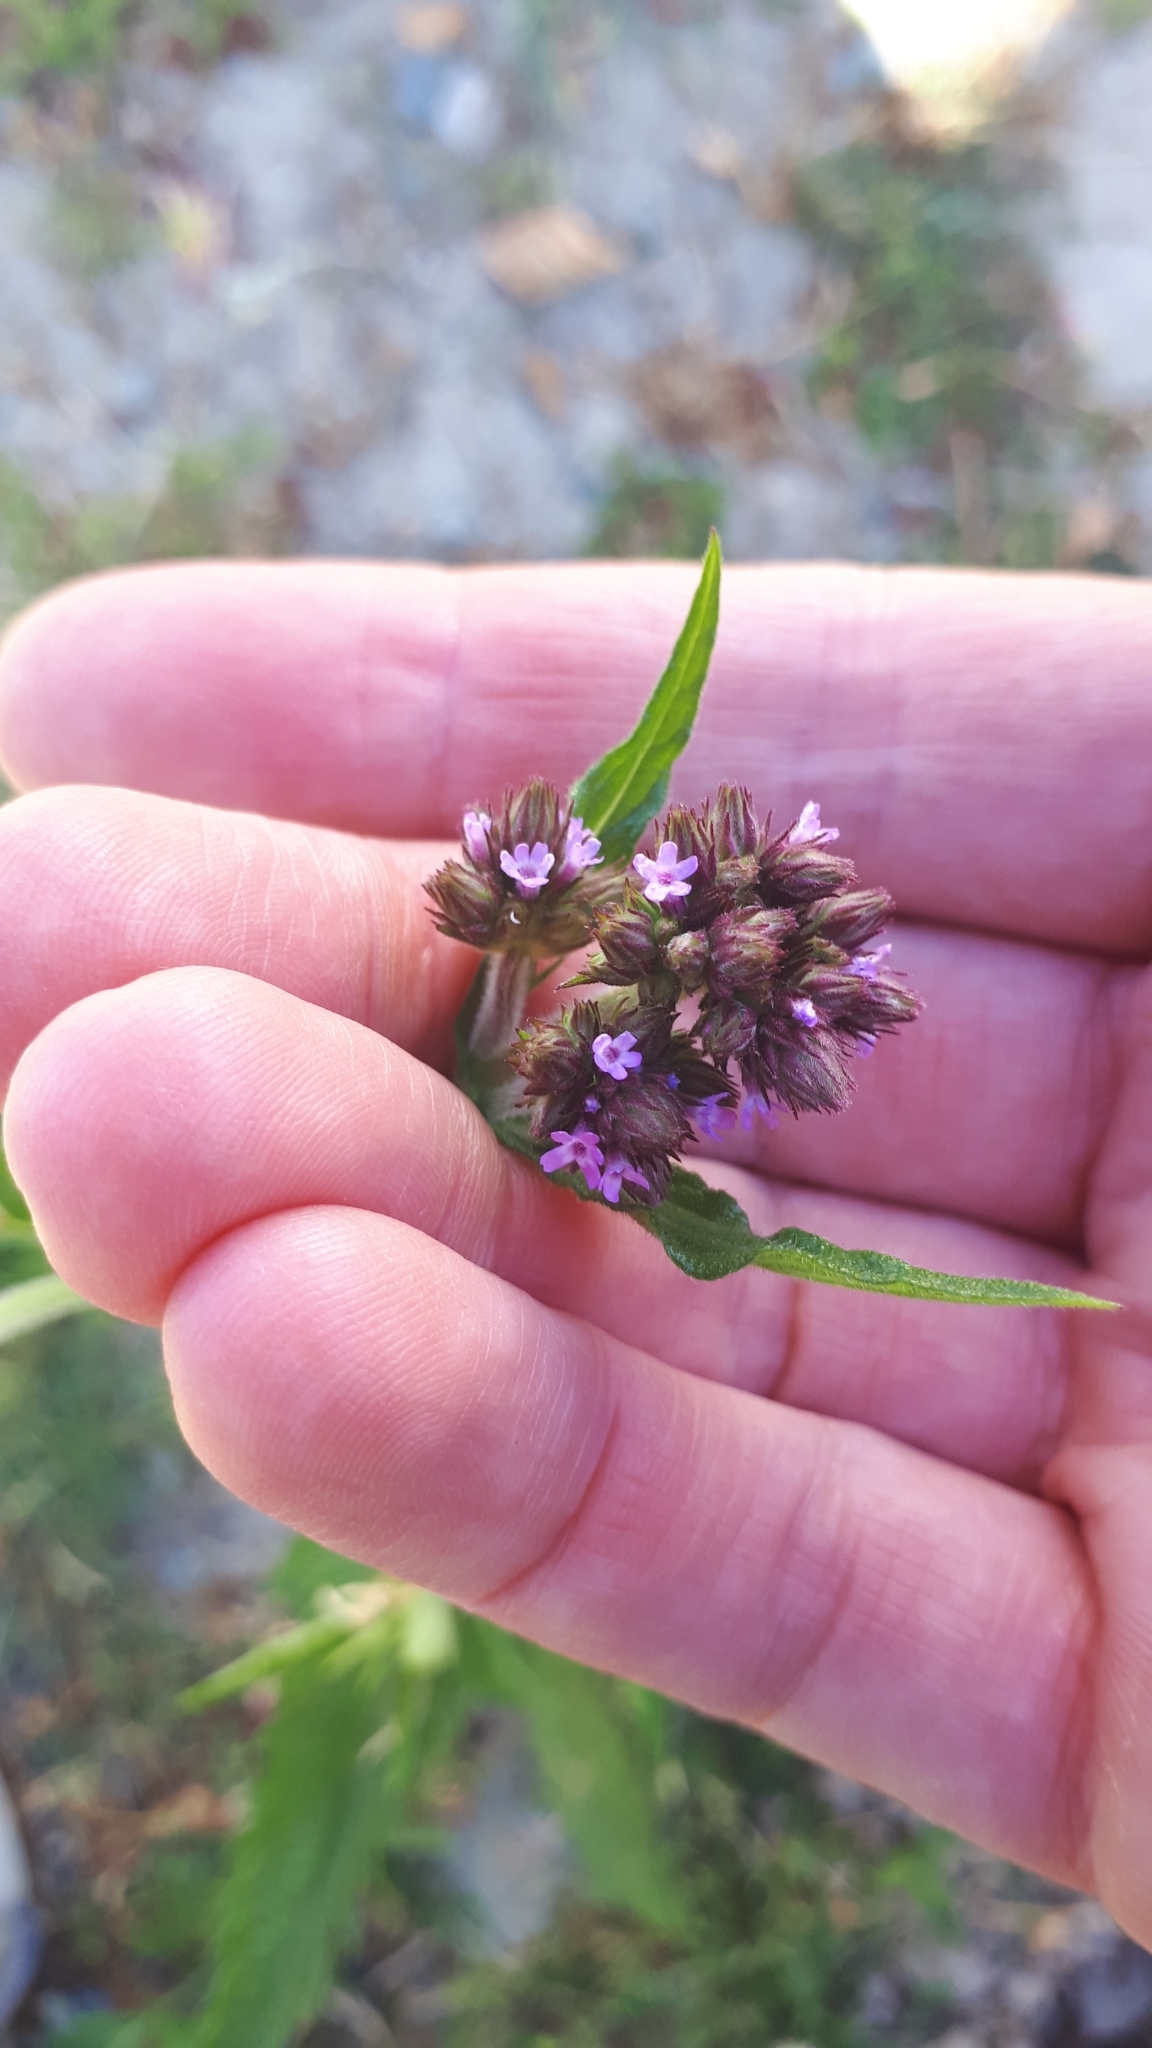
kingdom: Plantae
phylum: Tracheophyta
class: Magnoliopsida
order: Lamiales
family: Verbenaceae
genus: Verbena
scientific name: Verbena incompta
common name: Purpletop vervain
